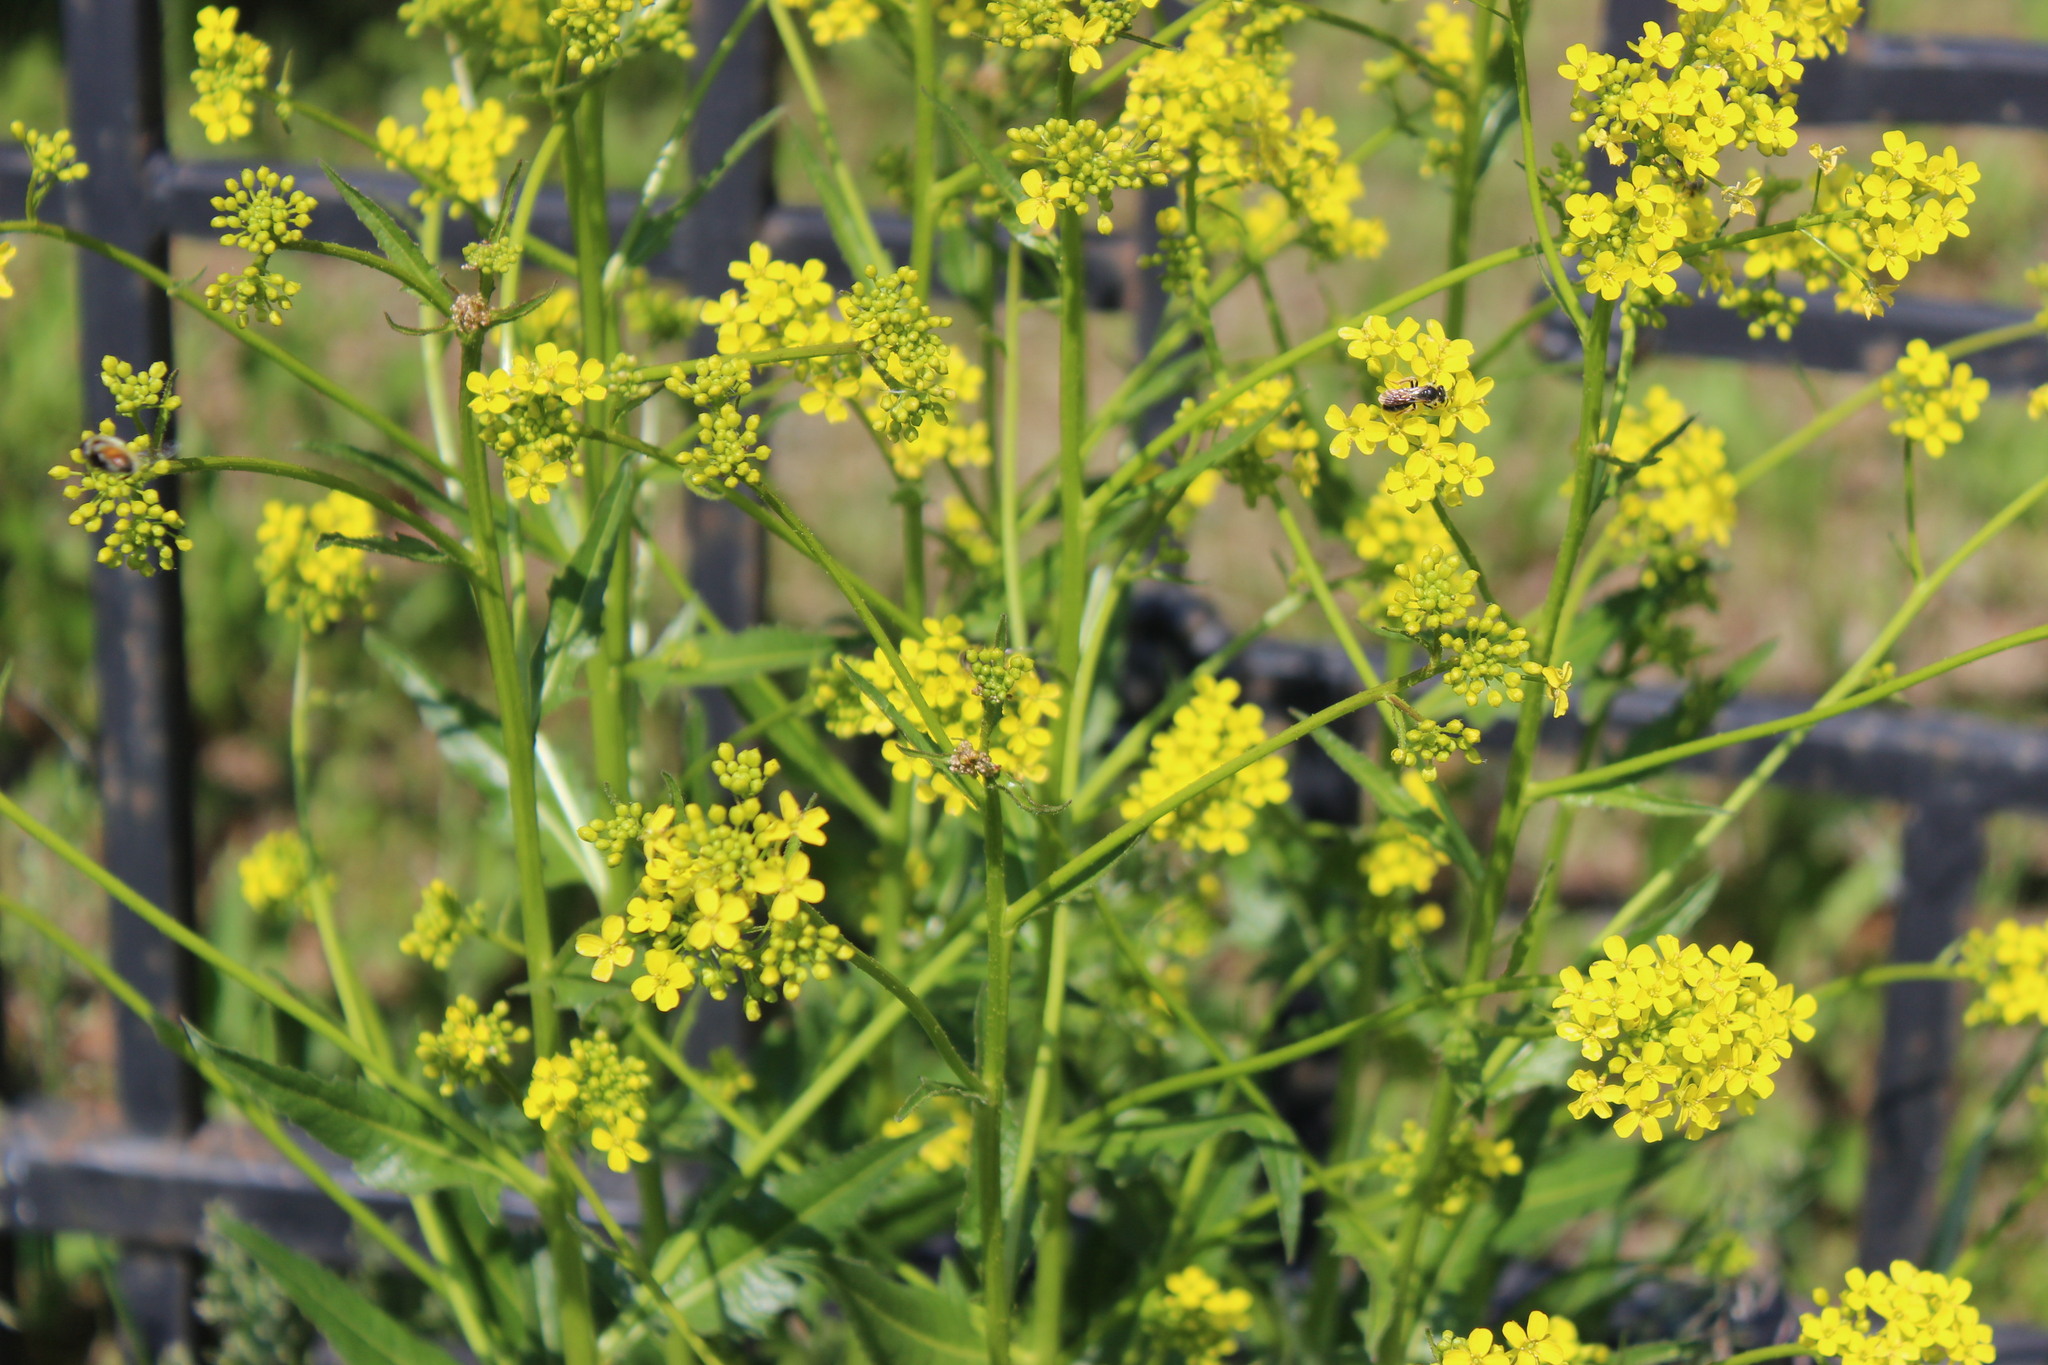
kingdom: Plantae
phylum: Tracheophyta
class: Magnoliopsida
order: Brassicales
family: Brassicaceae
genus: Bunias
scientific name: Bunias orientalis
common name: Warty-cabbage
